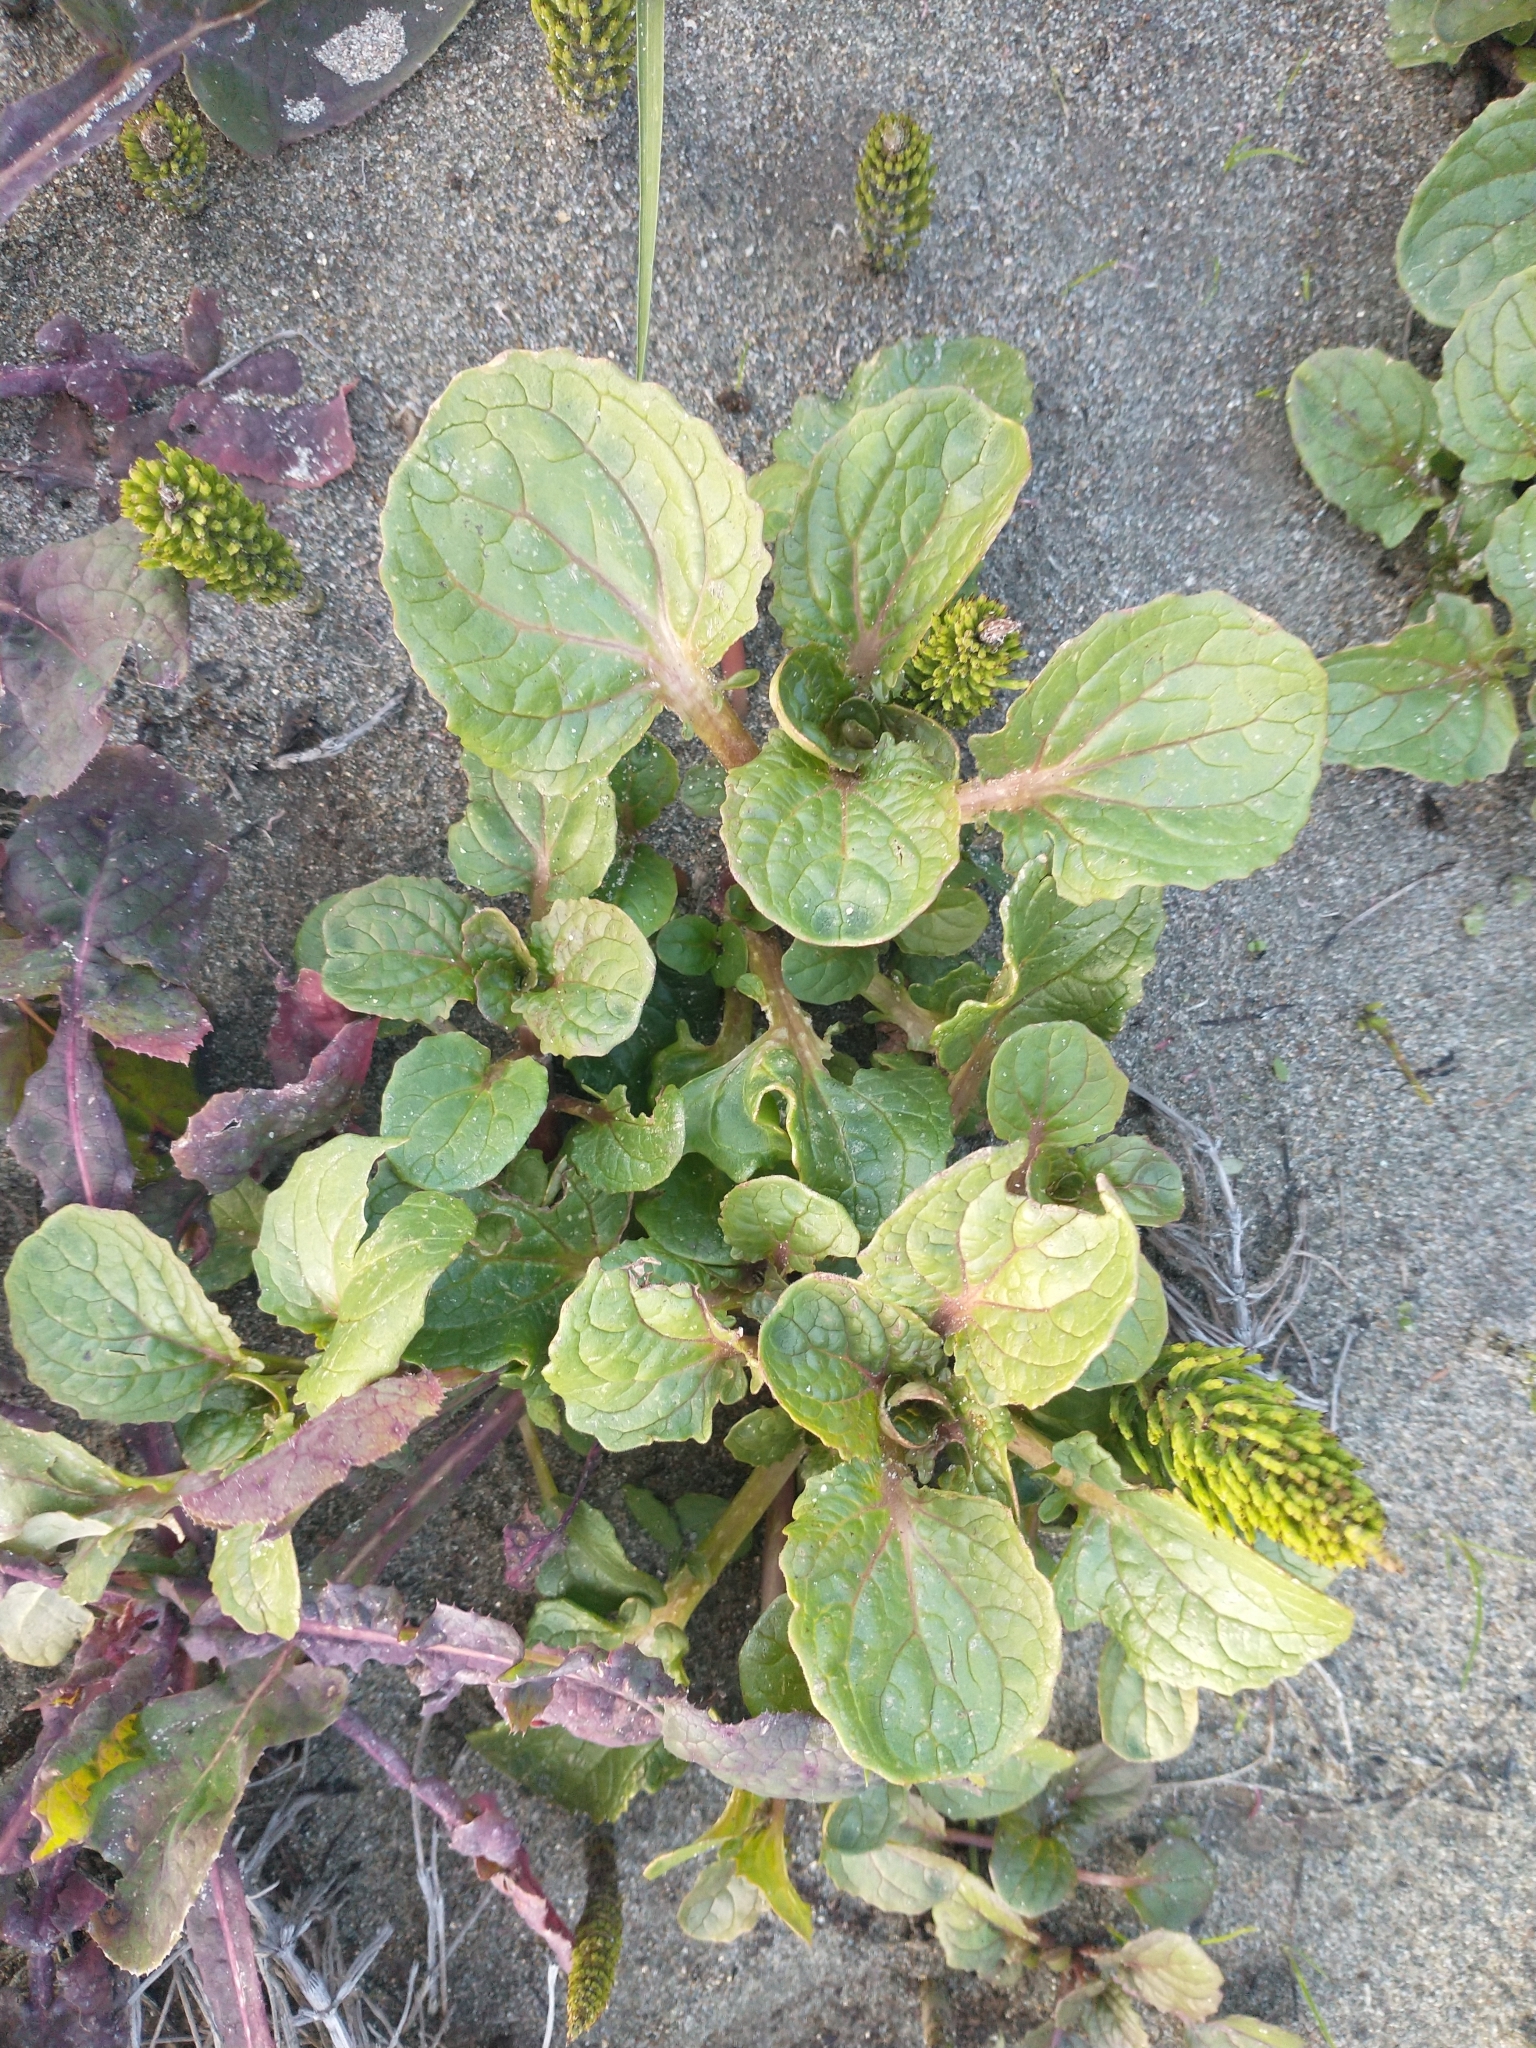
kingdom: Plantae
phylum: Tracheophyta
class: Magnoliopsida
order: Lamiales
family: Phrymaceae
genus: Erythranthe
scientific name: Erythranthe grandis
